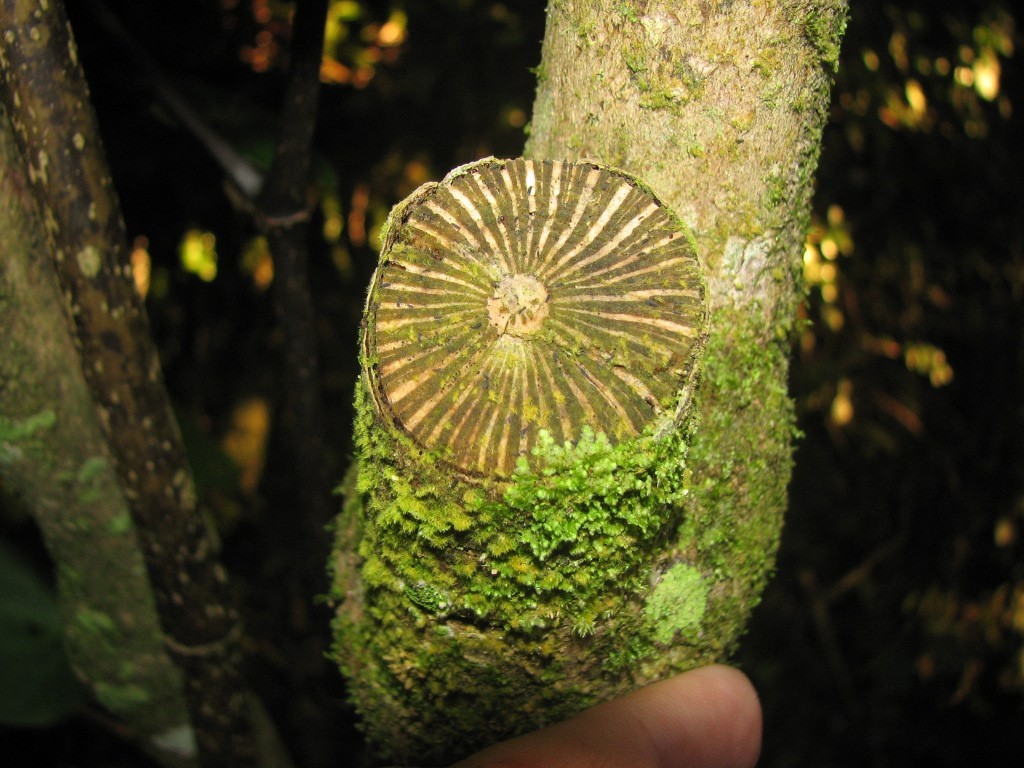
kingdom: Plantae
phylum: Tracheophyta
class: Magnoliopsida
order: Piperales
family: Piperaceae
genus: Macropiper
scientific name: Macropiper excelsum
